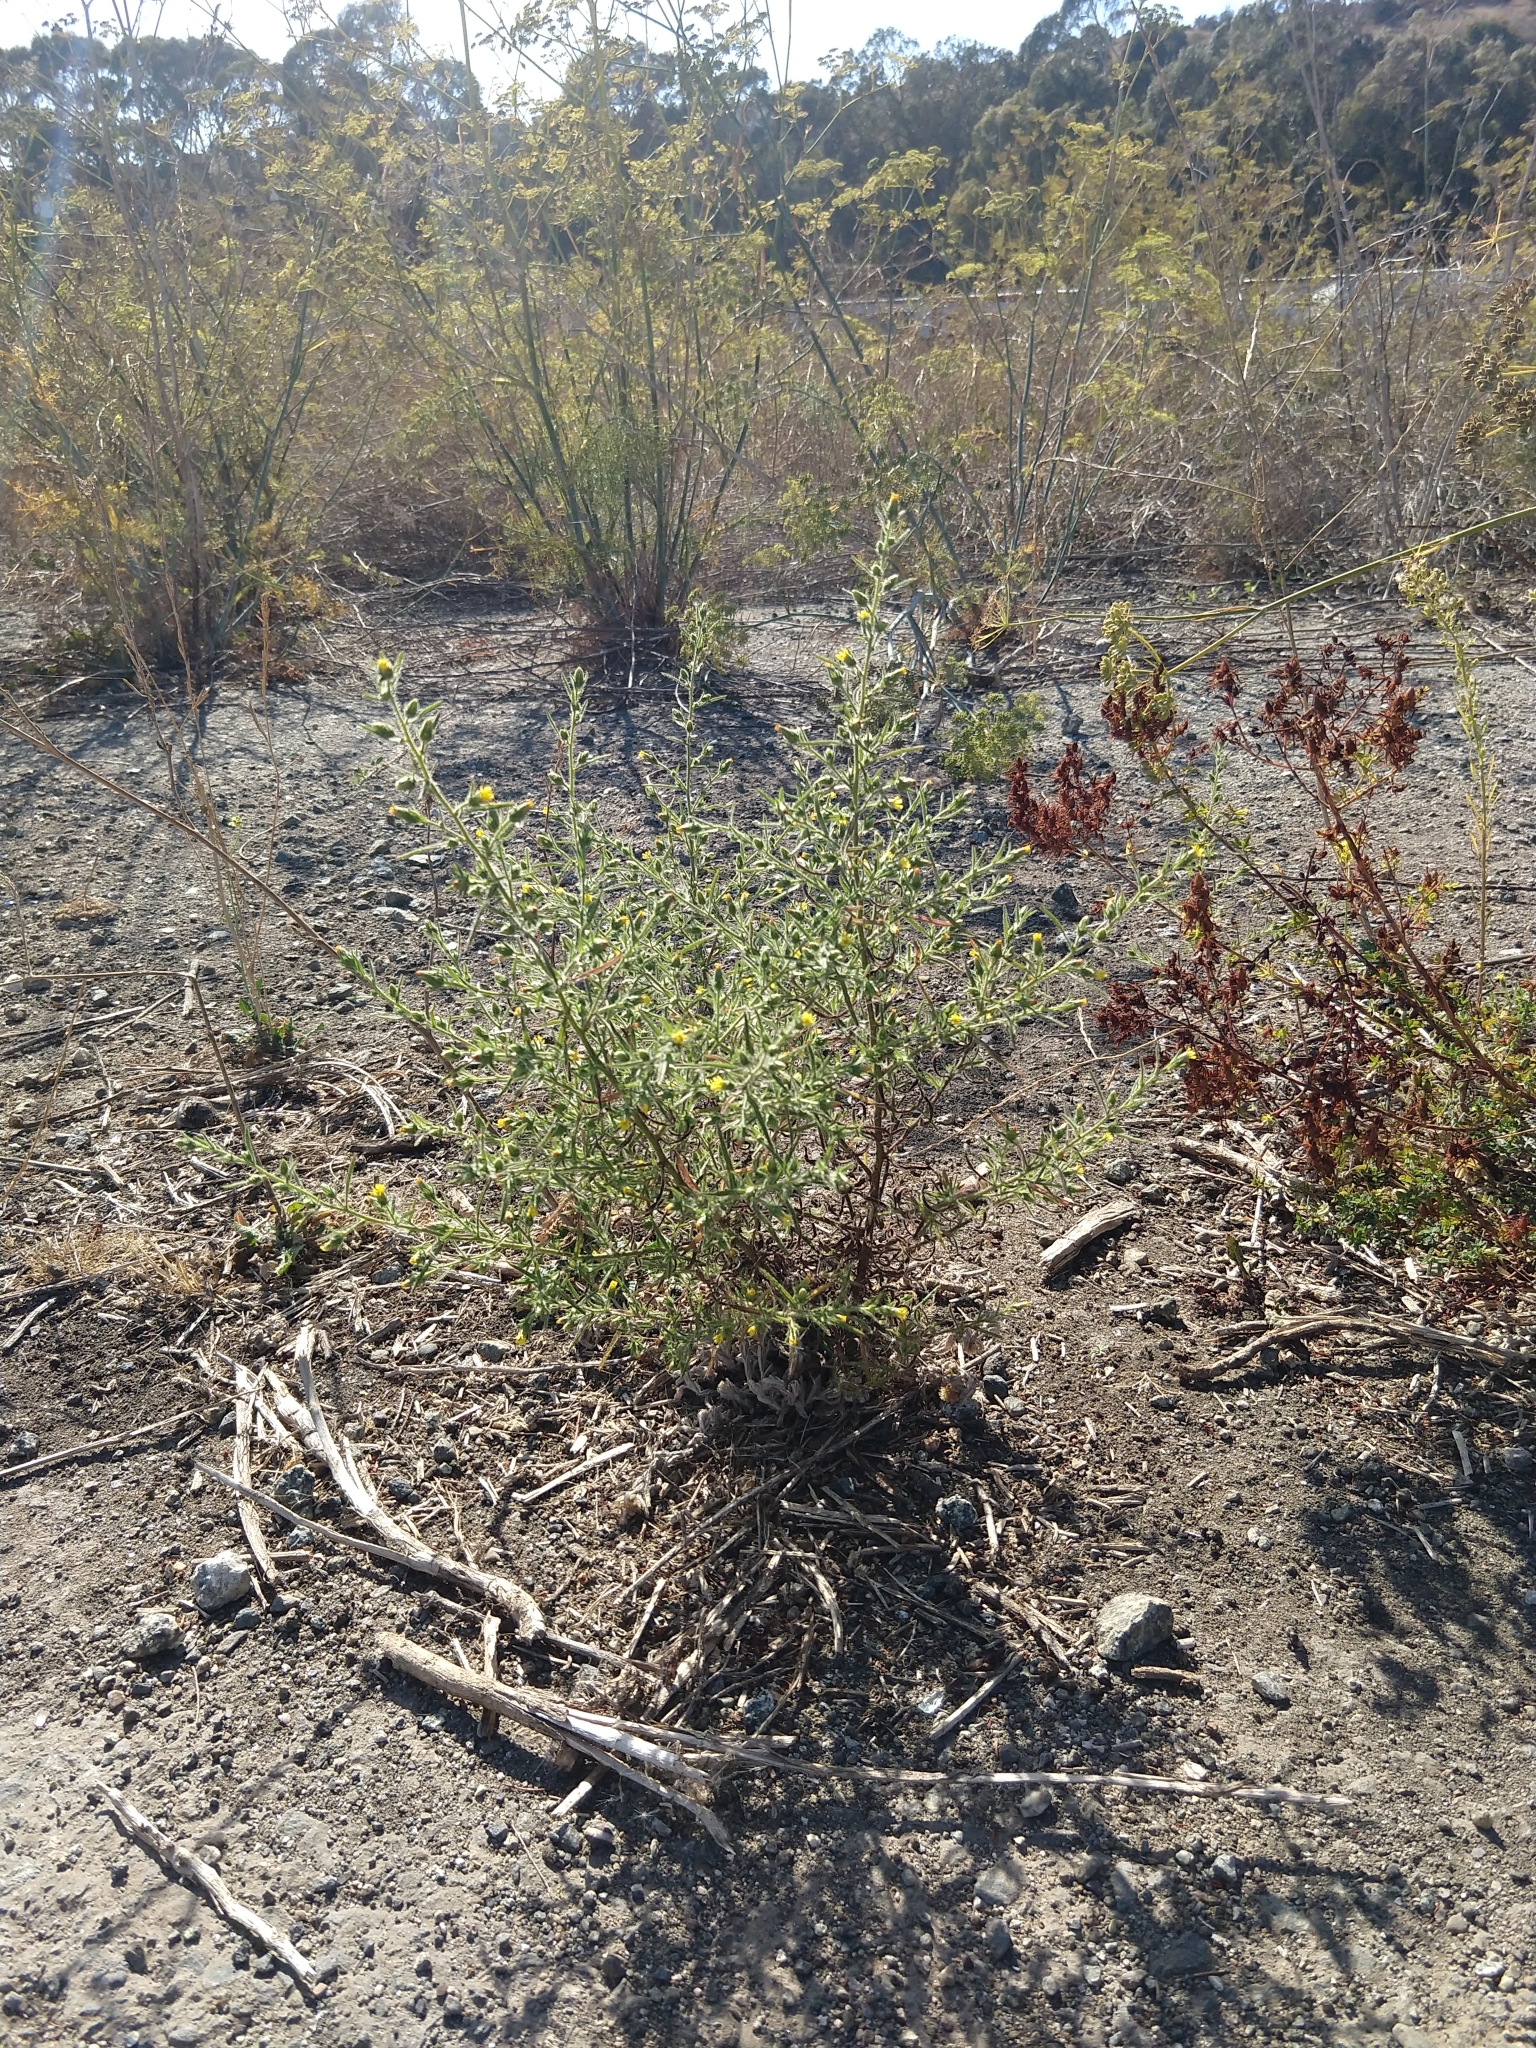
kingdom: Plantae
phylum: Tracheophyta
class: Magnoliopsida
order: Asterales
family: Asteraceae
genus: Dittrichia
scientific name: Dittrichia graveolens
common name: Stinking fleabane
